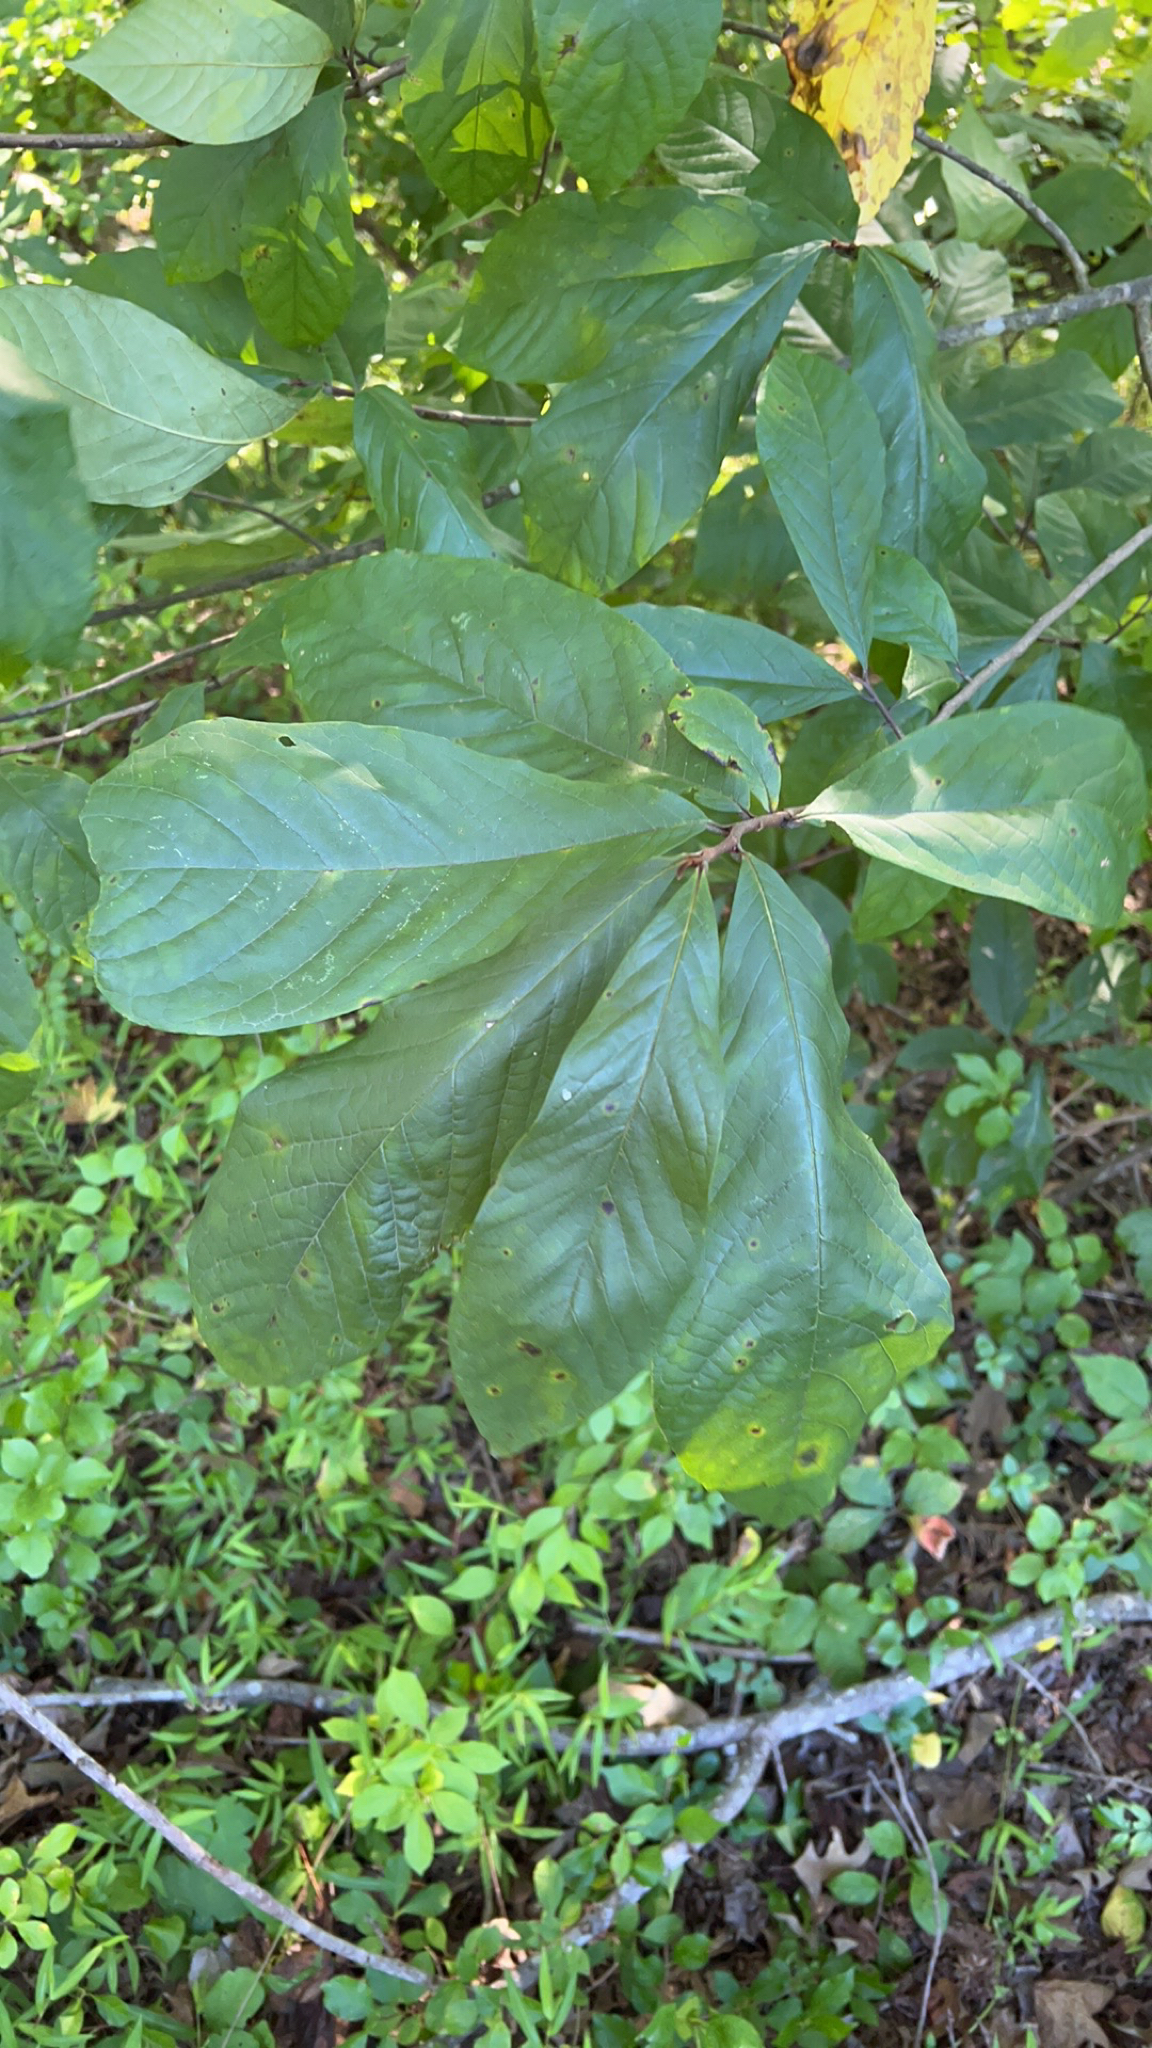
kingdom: Plantae
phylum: Tracheophyta
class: Magnoliopsida
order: Magnoliales
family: Annonaceae
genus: Asimina
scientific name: Asimina triloba
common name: Dog-banana
